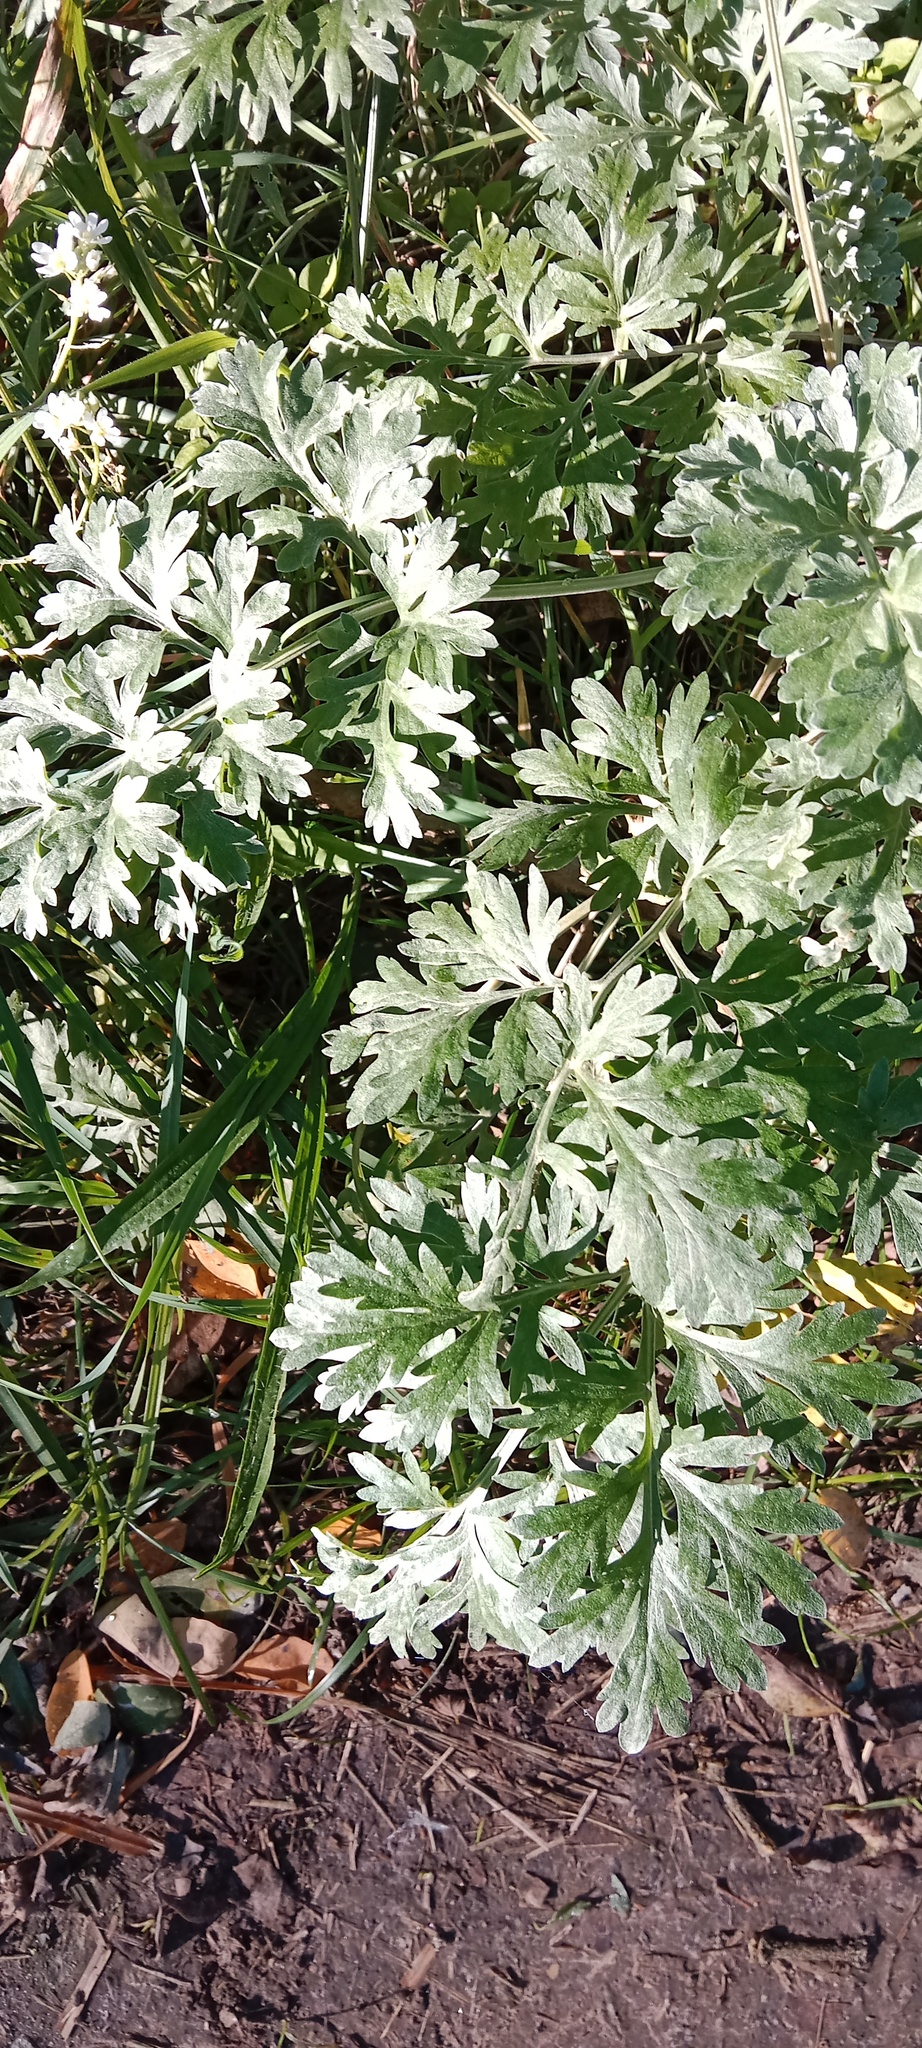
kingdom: Plantae
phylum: Tracheophyta
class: Magnoliopsida
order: Asterales
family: Asteraceae
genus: Artemisia
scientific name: Artemisia absinthium
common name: Wormwood
